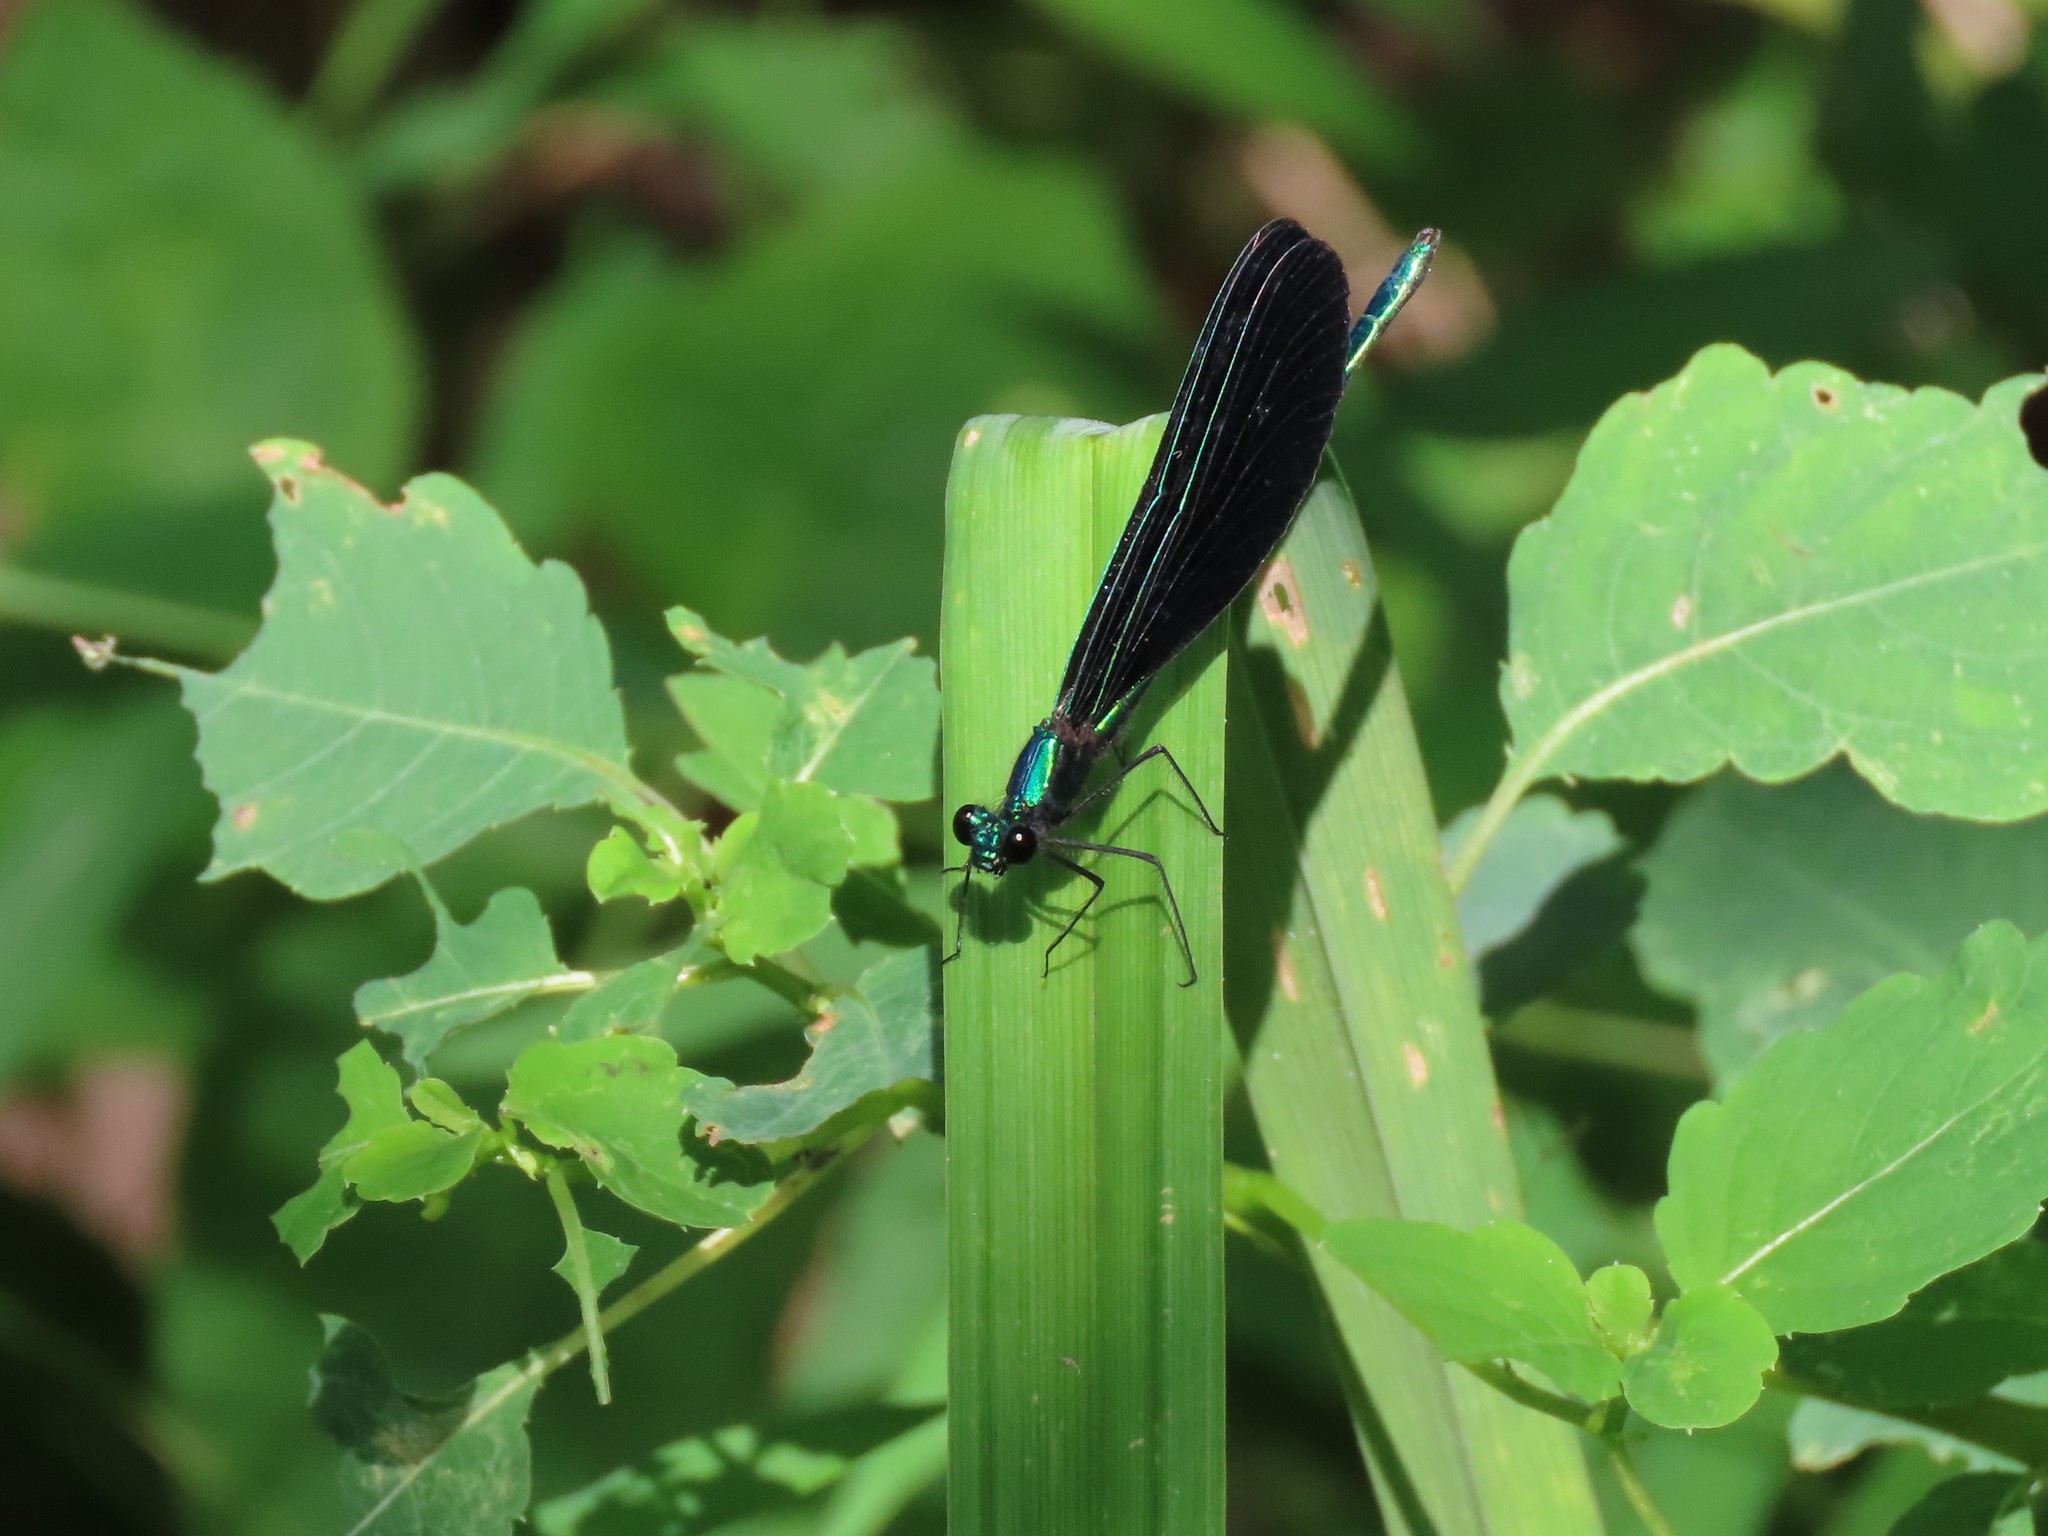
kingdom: Animalia
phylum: Arthropoda
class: Insecta
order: Odonata
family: Calopterygidae
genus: Calopteryx
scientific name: Calopteryx maculata
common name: Ebony jewelwing
